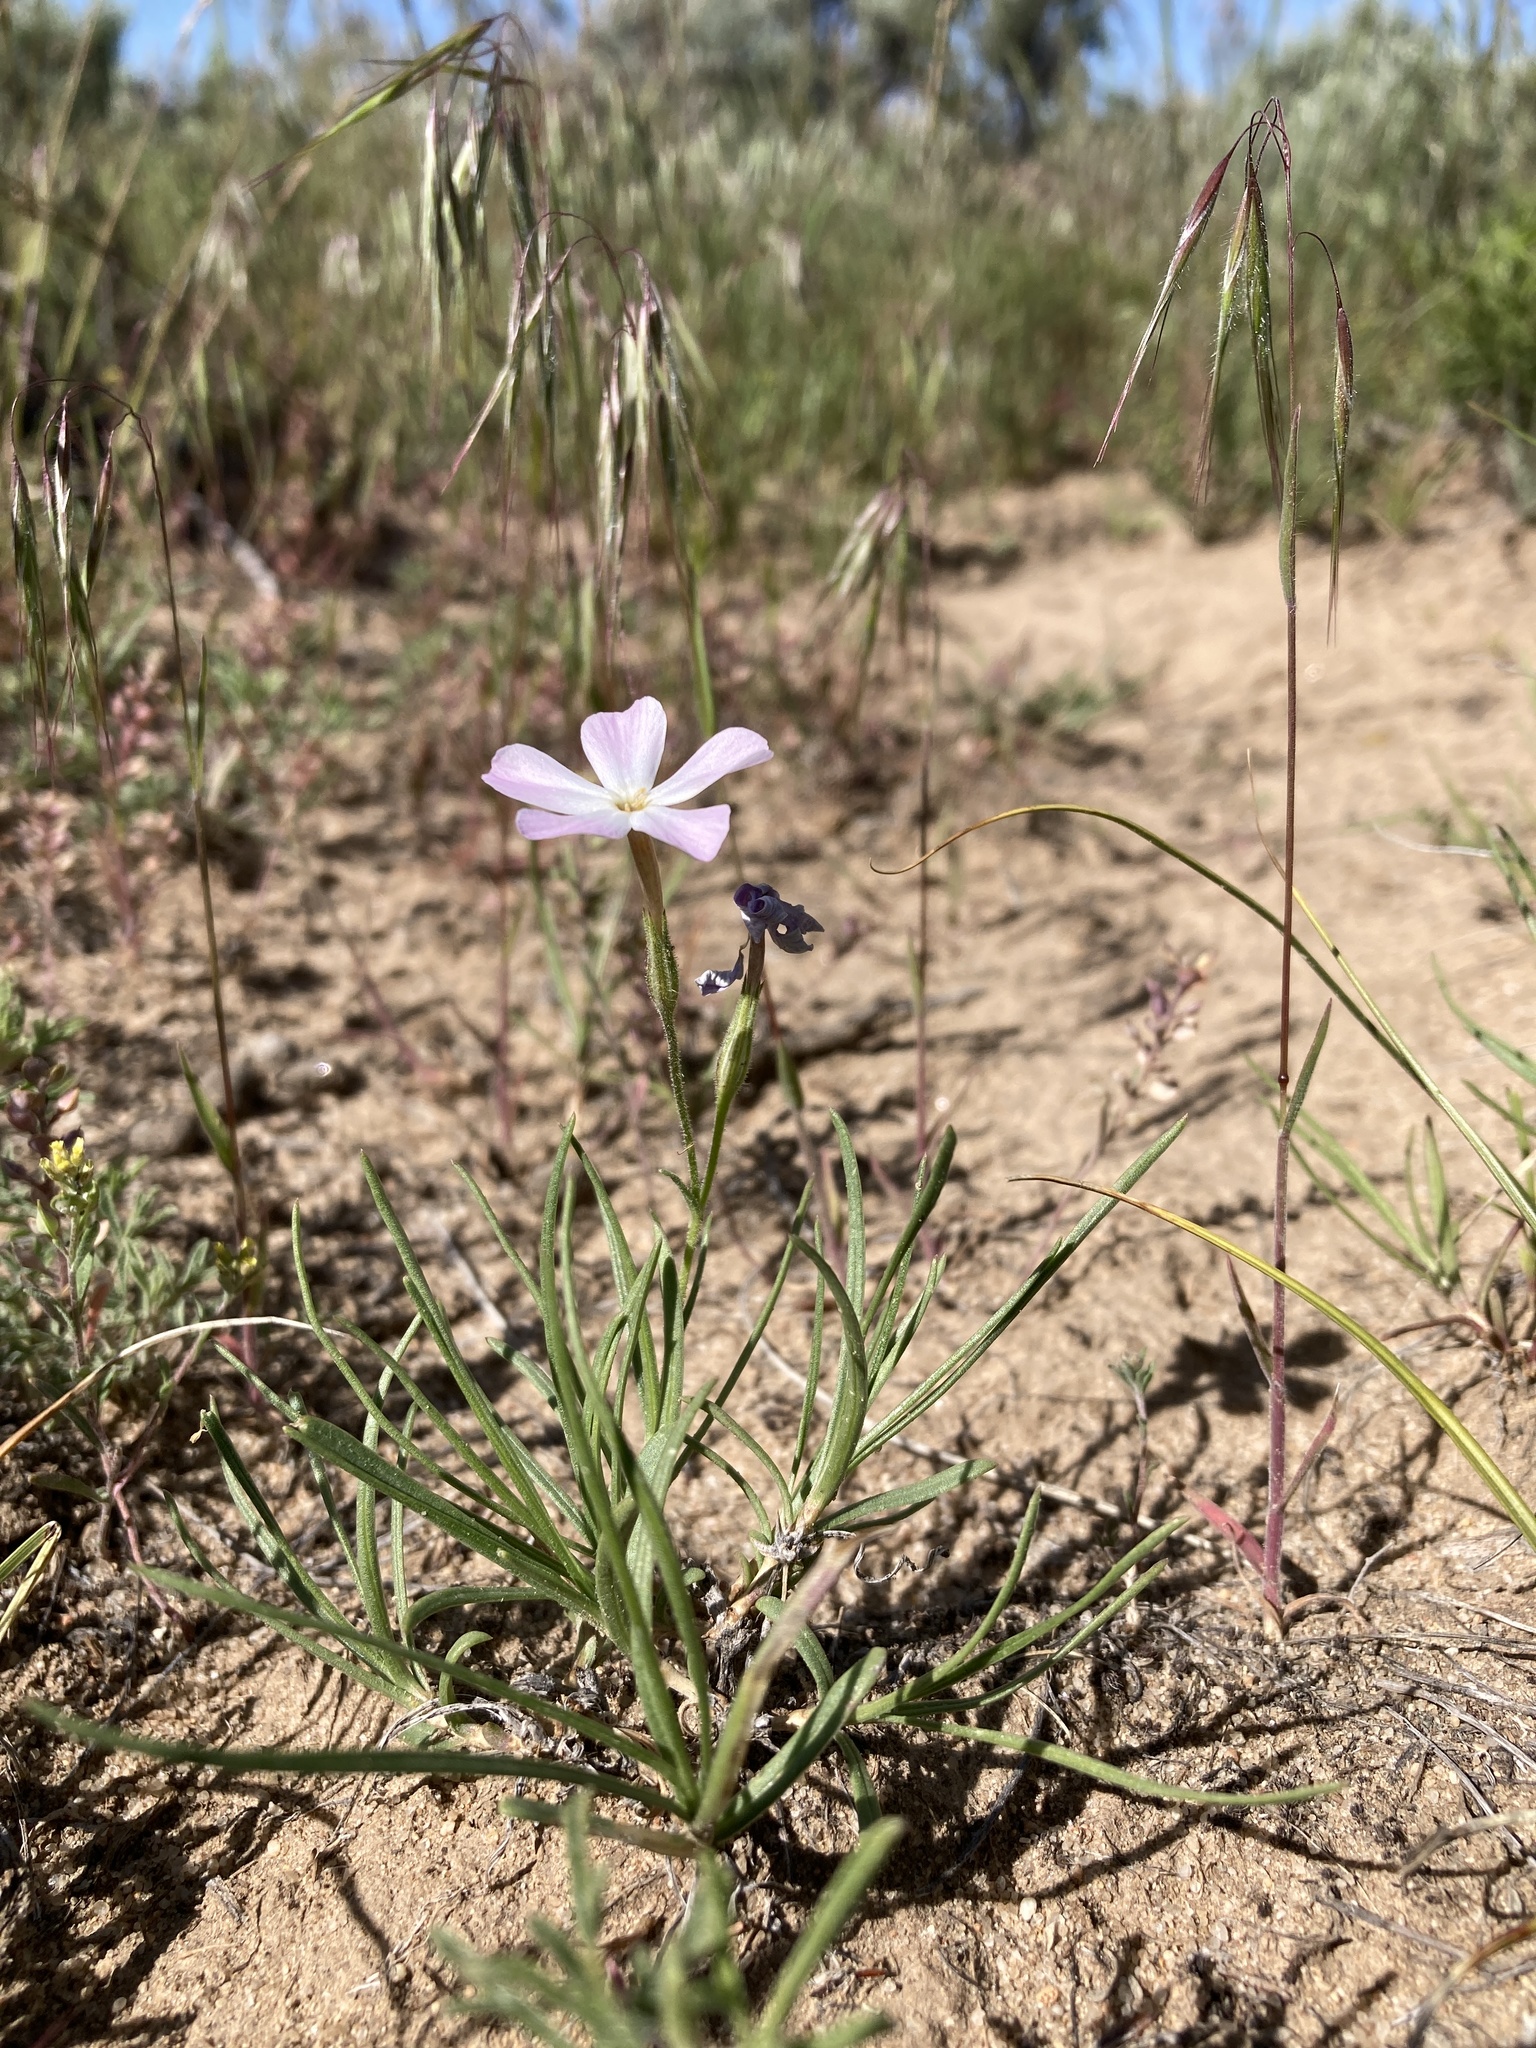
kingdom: Plantae
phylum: Tracheophyta
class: Magnoliopsida
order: Ericales
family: Polemoniaceae
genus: Phlox
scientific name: Phlox longifolia
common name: Longleaf phlox
